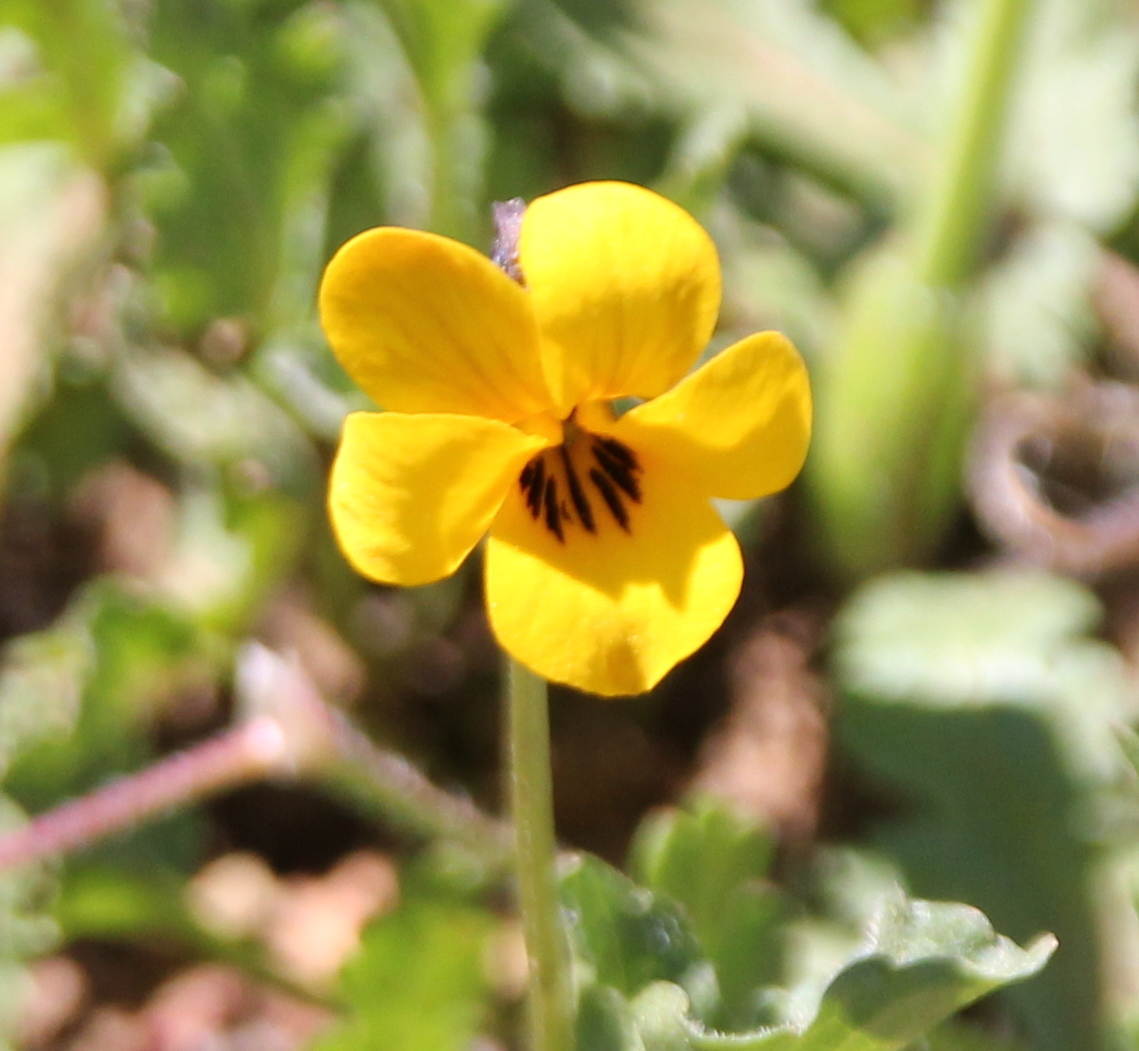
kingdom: Plantae
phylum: Tracheophyta
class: Magnoliopsida
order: Malpighiales
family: Violaceae
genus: Viola
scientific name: Viola pedunculata
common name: California golden violet
